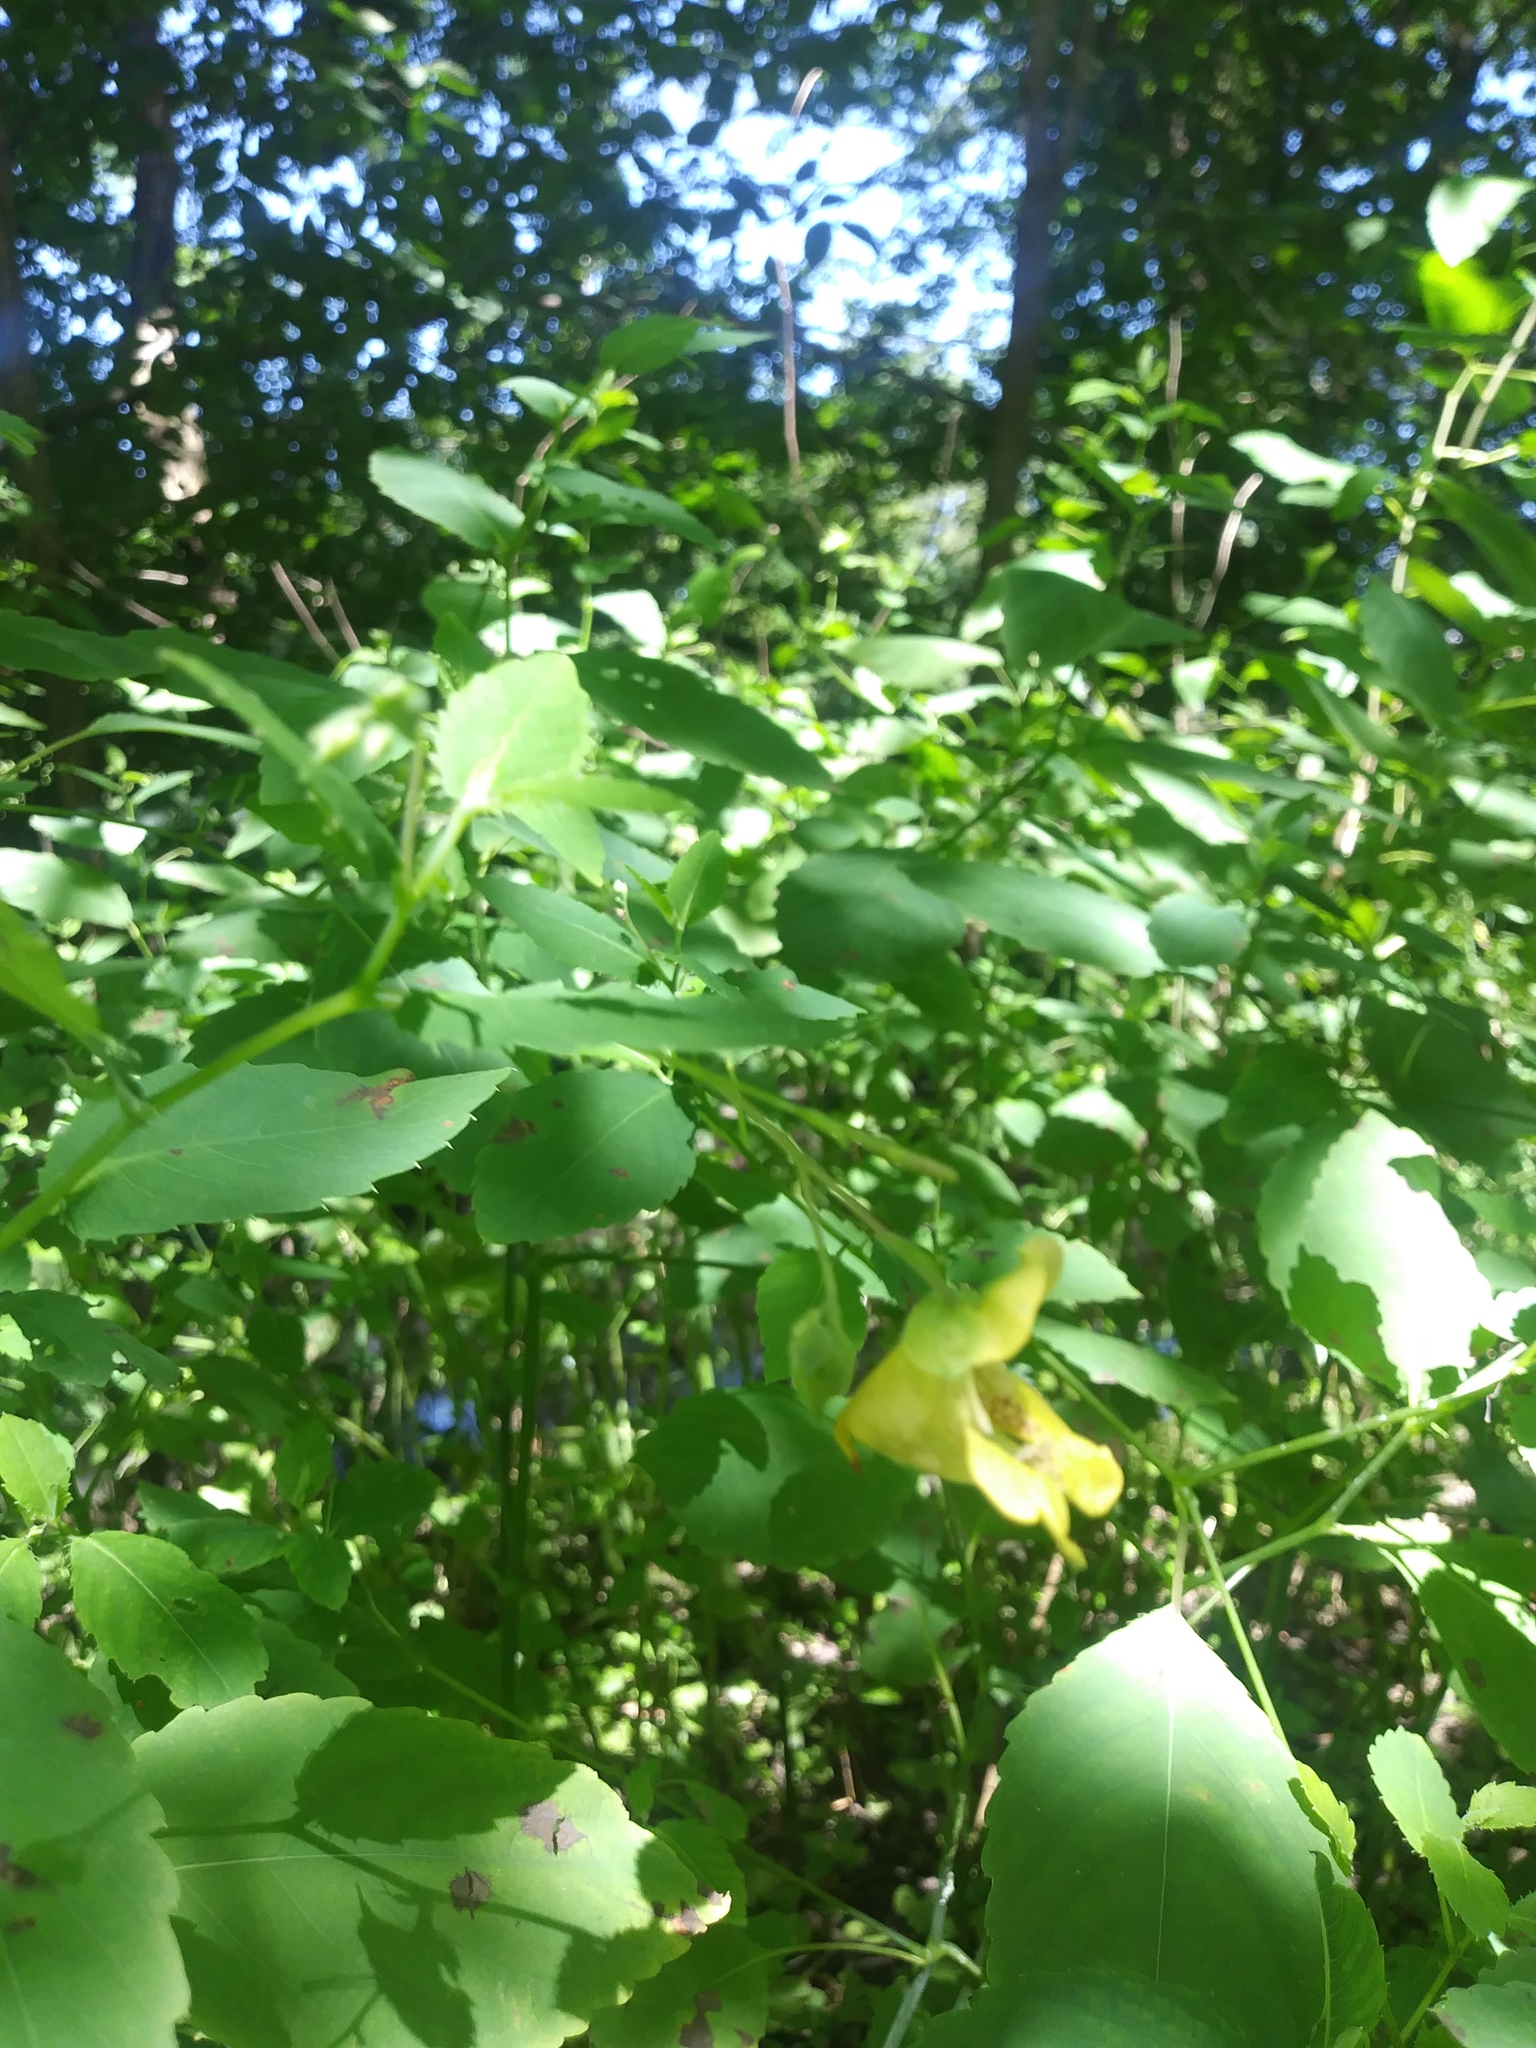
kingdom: Plantae
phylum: Tracheophyta
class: Magnoliopsida
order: Ericales
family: Balsaminaceae
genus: Impatiens
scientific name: Impatiens pallida
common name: Pale snapweed
